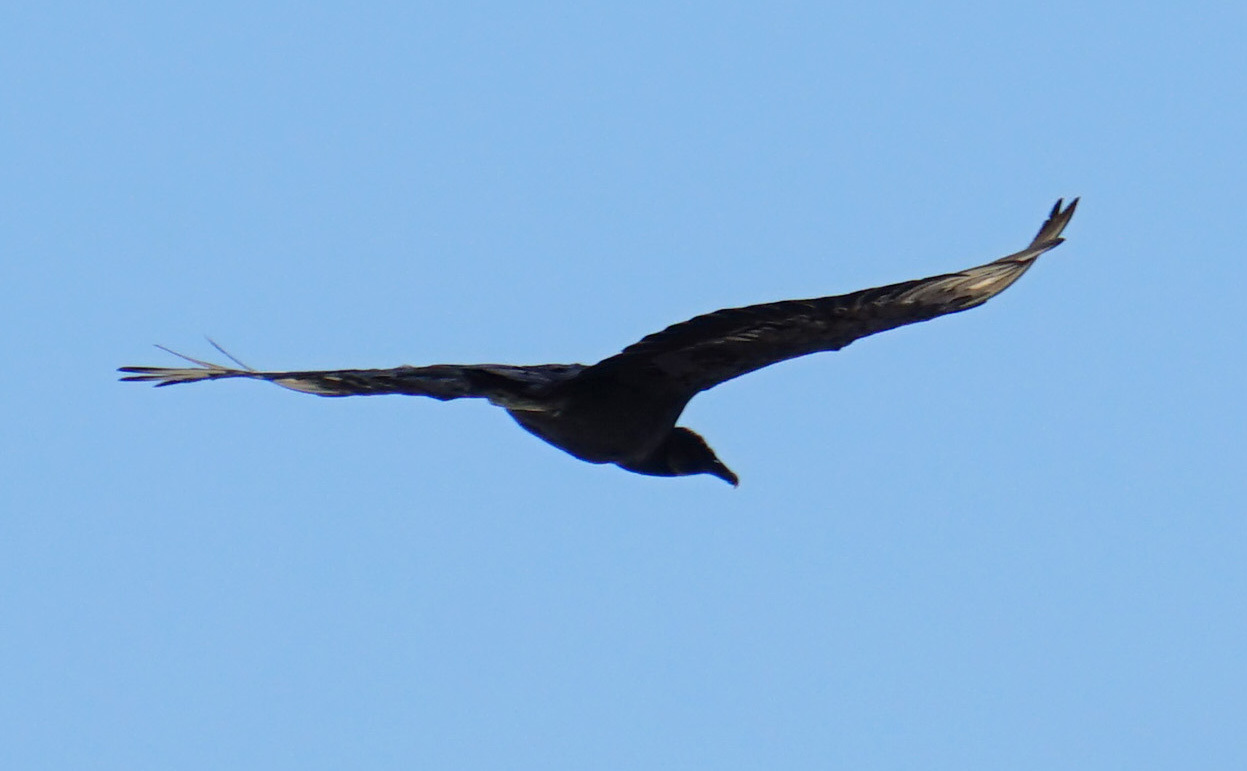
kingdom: Animalia
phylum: Chordata
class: Aves
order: Accipitriformes
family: Cathartidae
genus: Cathartes
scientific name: Cathartes aura
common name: Turkey vulture
